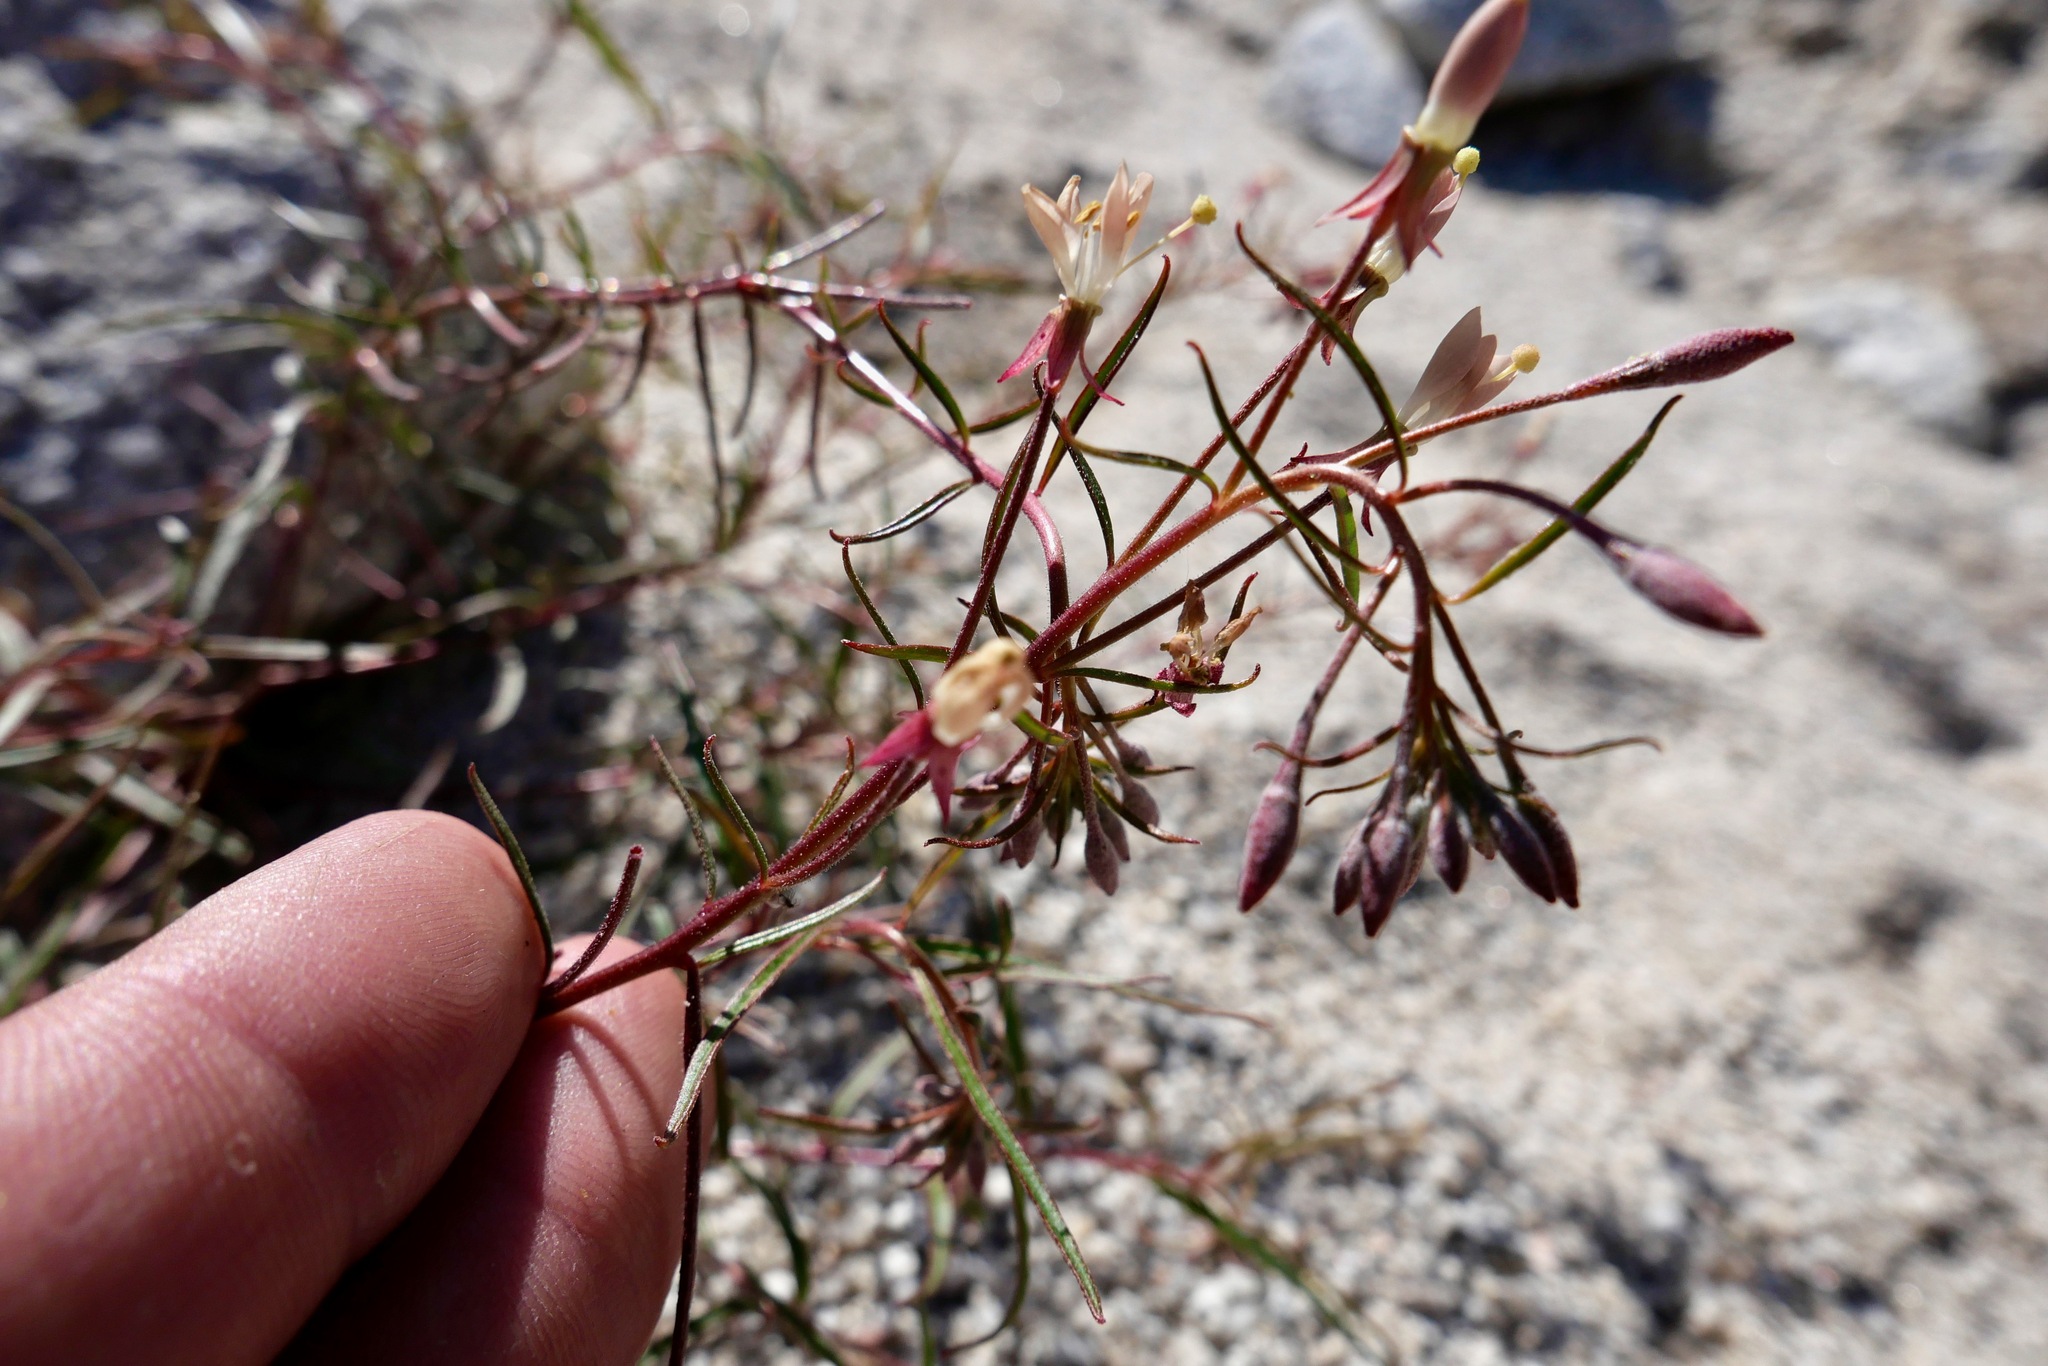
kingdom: Plantae
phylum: Tracheophyta
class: Magnoliopsida
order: Myrtales
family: Onagraceae
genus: Eremothera
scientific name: Eremothera refracta
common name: Narrowleaf suncup
